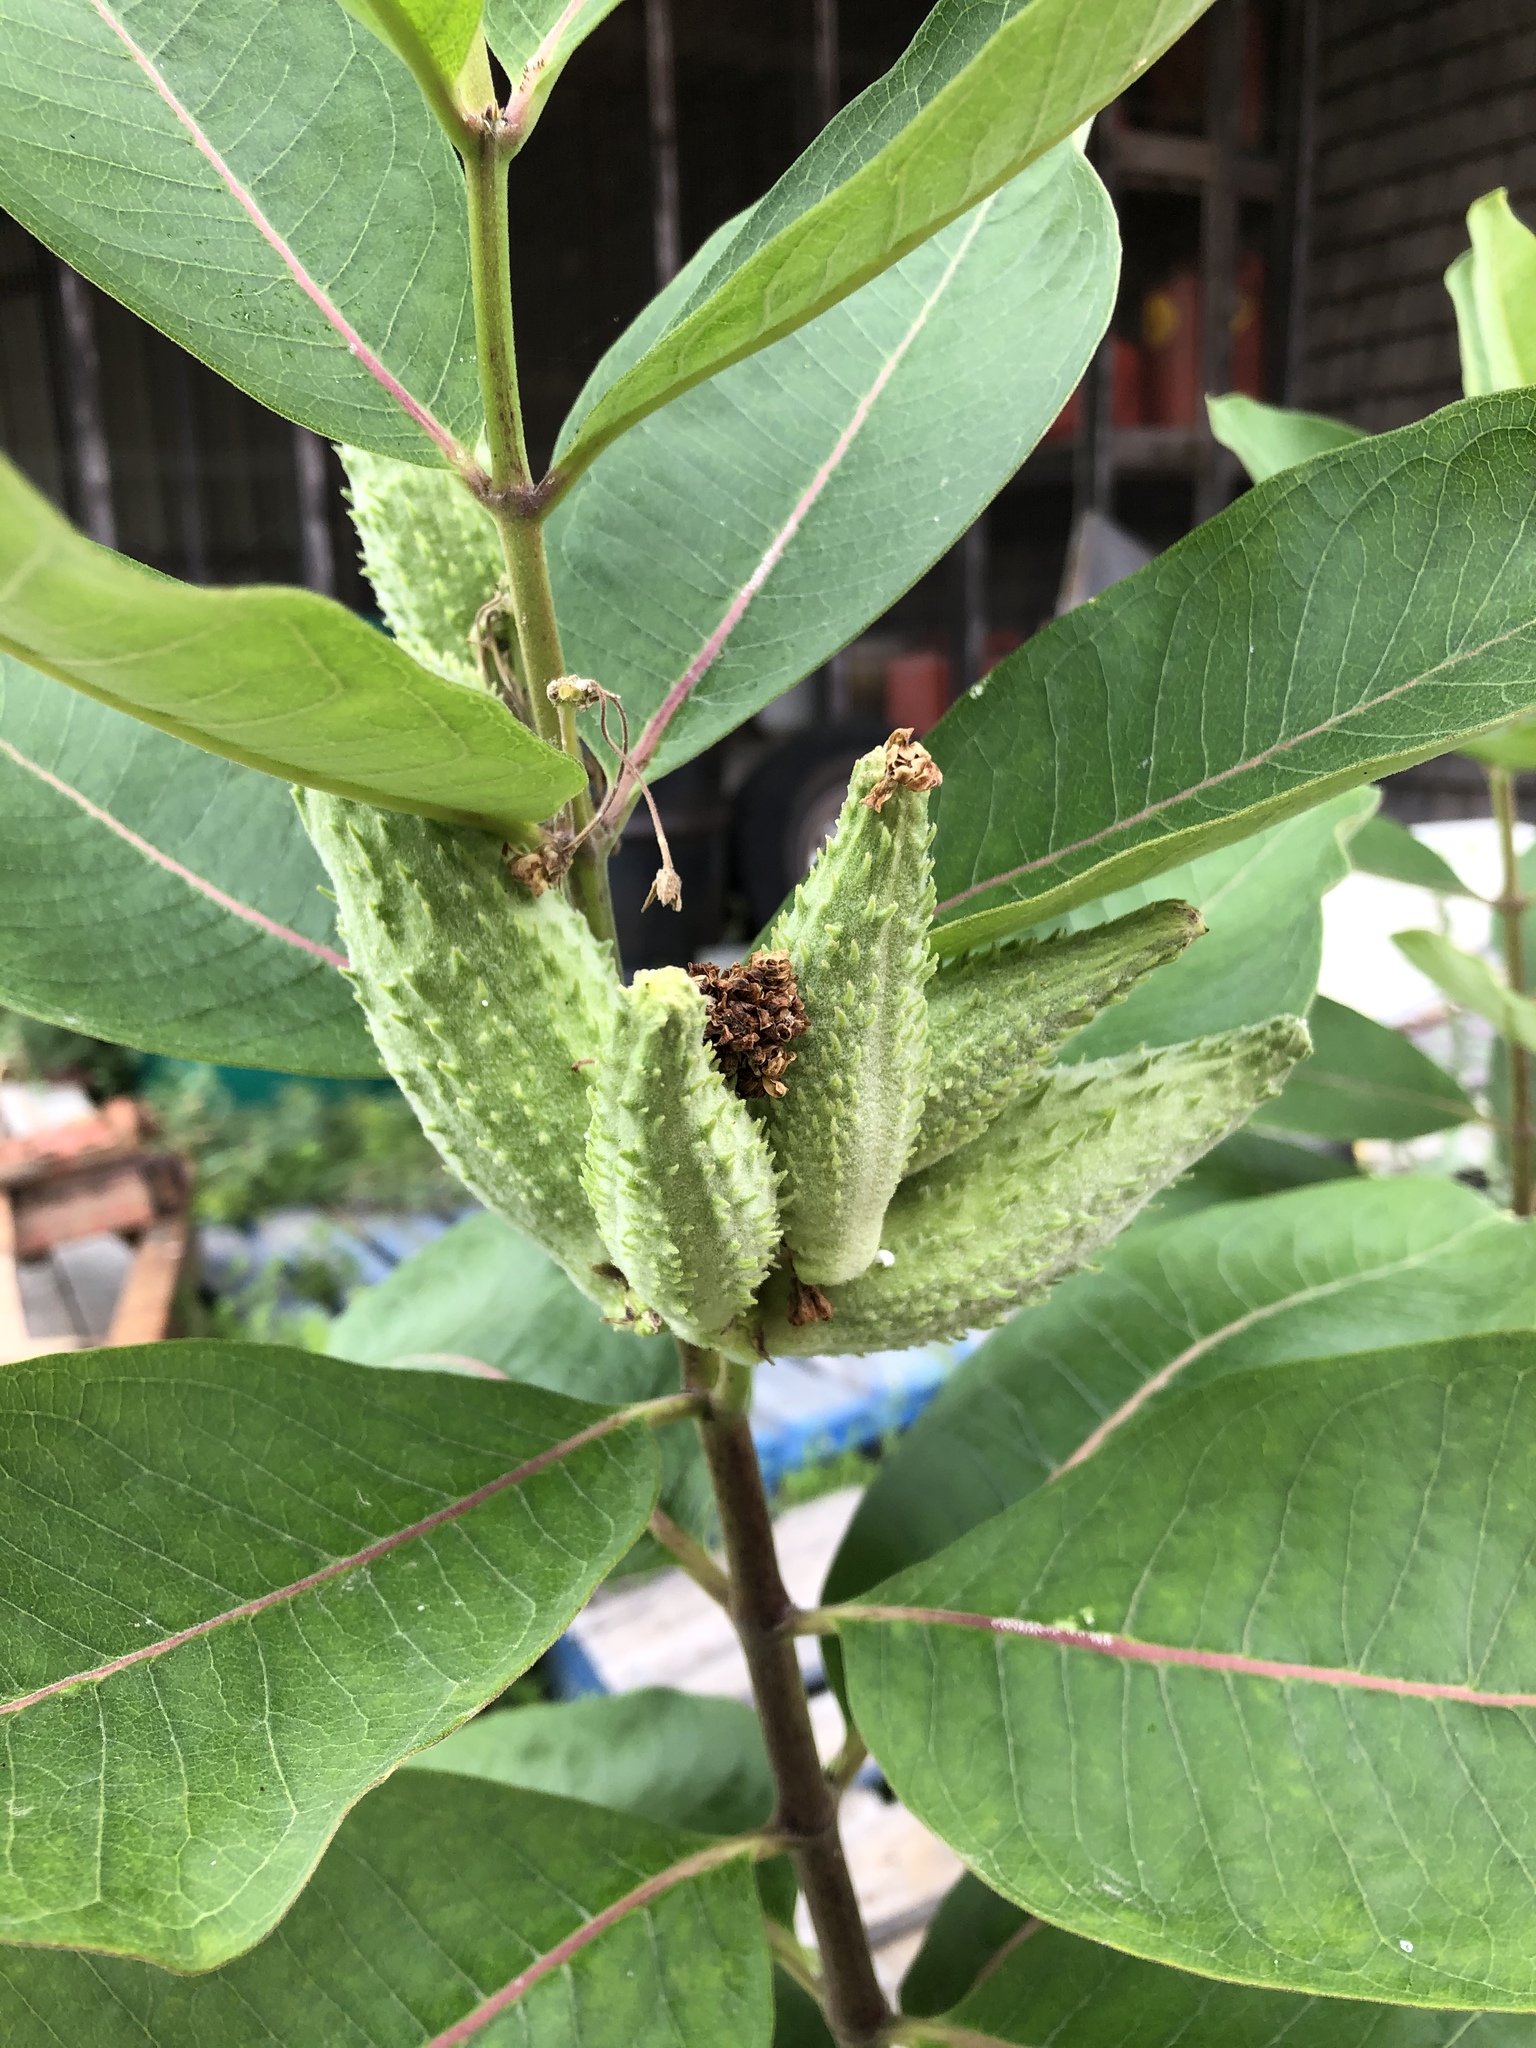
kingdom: Plantae
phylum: Tracheophyta
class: Magnoliopsida
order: Gentianales
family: Apocynaceae
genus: Asclepias
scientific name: Asclepias syriaca
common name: Common milkweed
